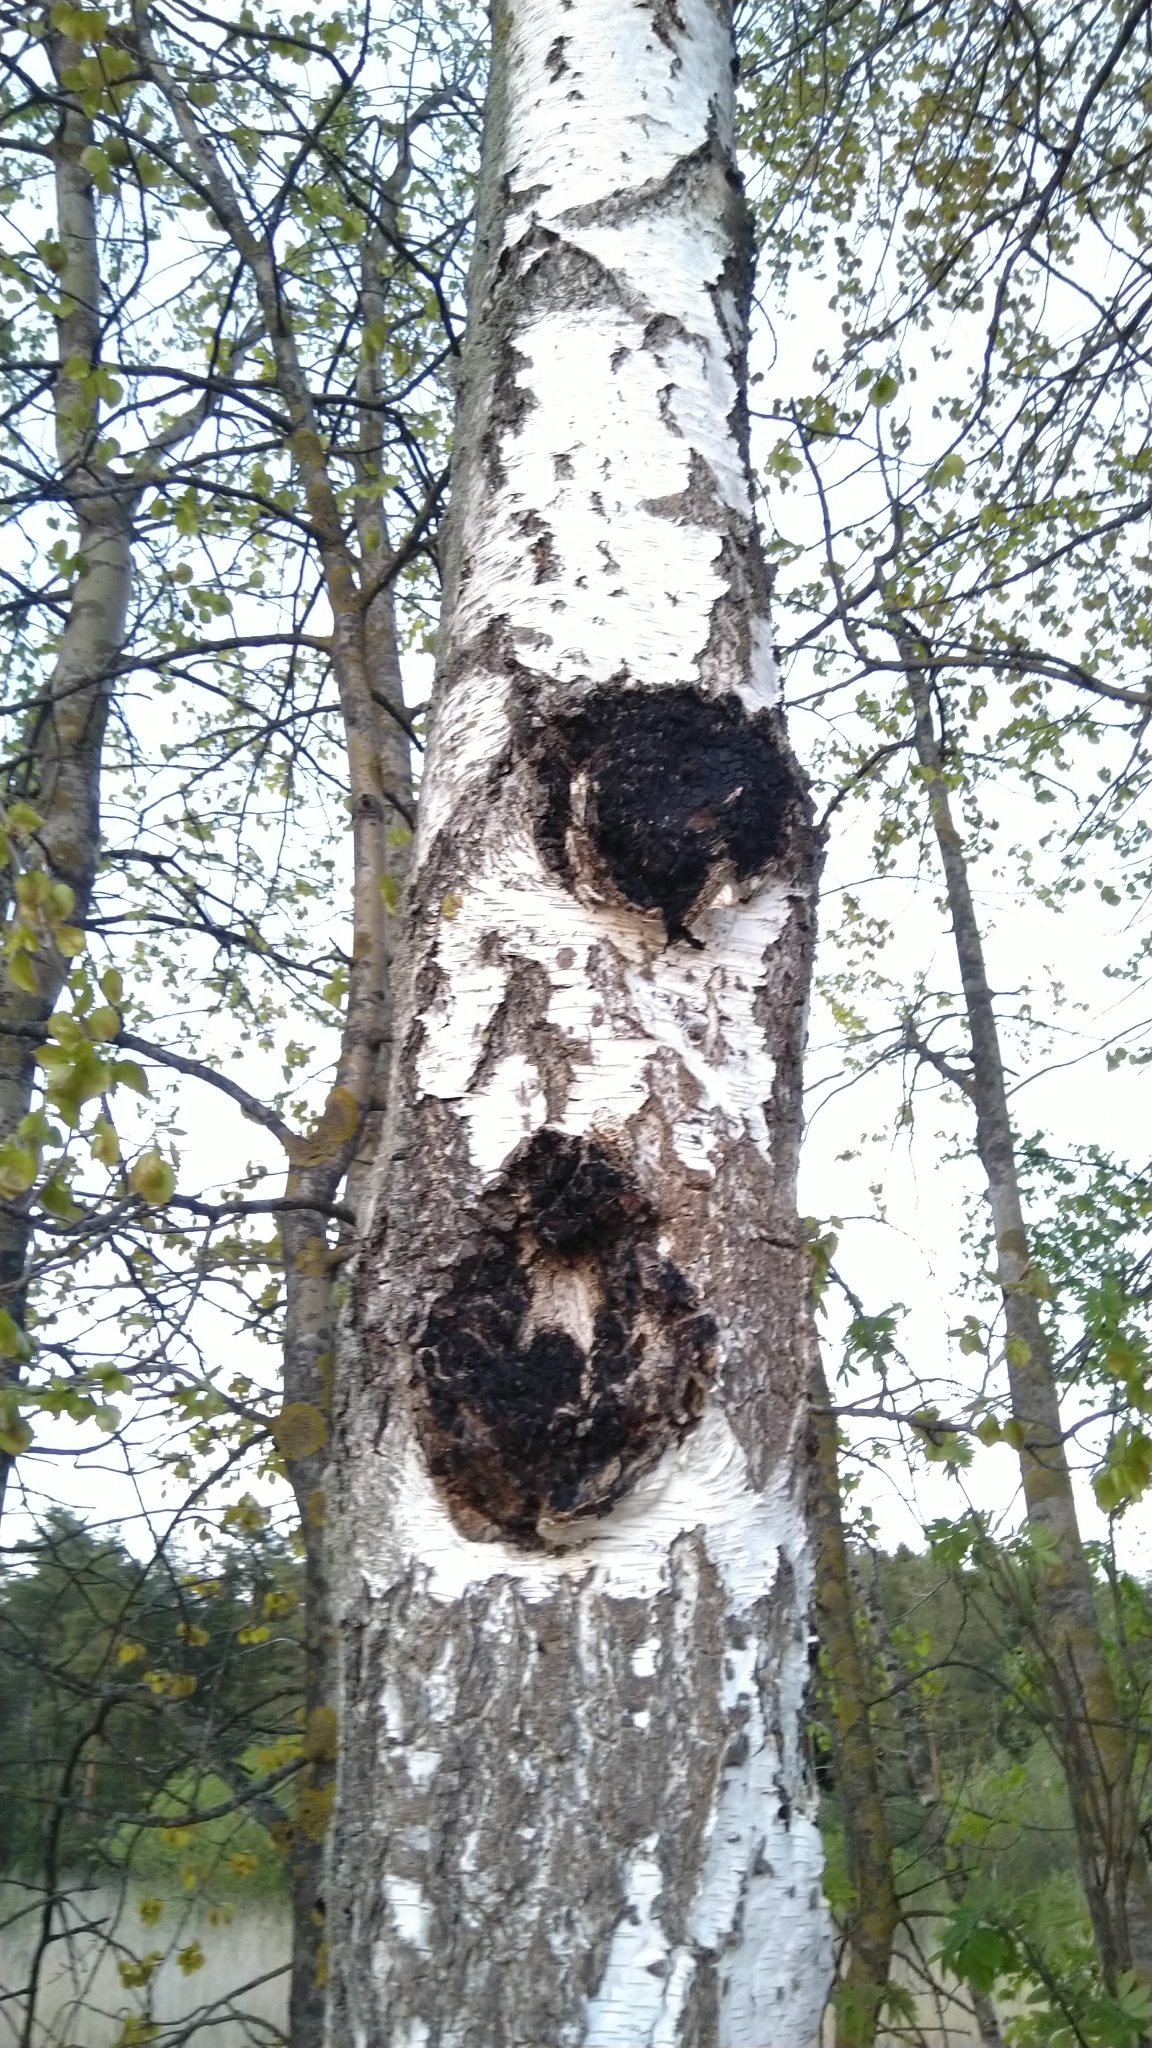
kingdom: Fungi
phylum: Basidiomycota
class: Agaricomycetes
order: Hymenochaetales
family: Hymenochaetaceae
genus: Inonotus
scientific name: Inonotus obliquus
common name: Chaga
